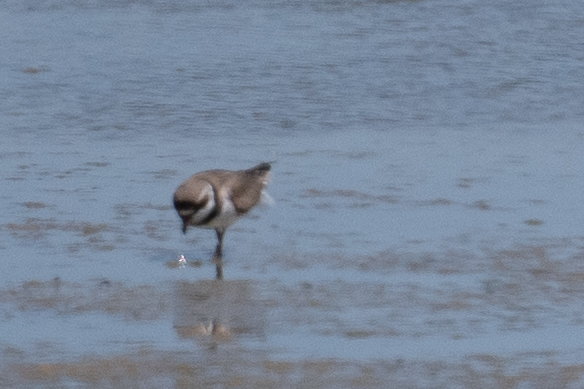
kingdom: Animalia
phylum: Chordata
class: Aves
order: Charadriiformes
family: Charadriidae
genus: Charadrius
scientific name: Charadrius semipalmatus
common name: Semipalmated plover
